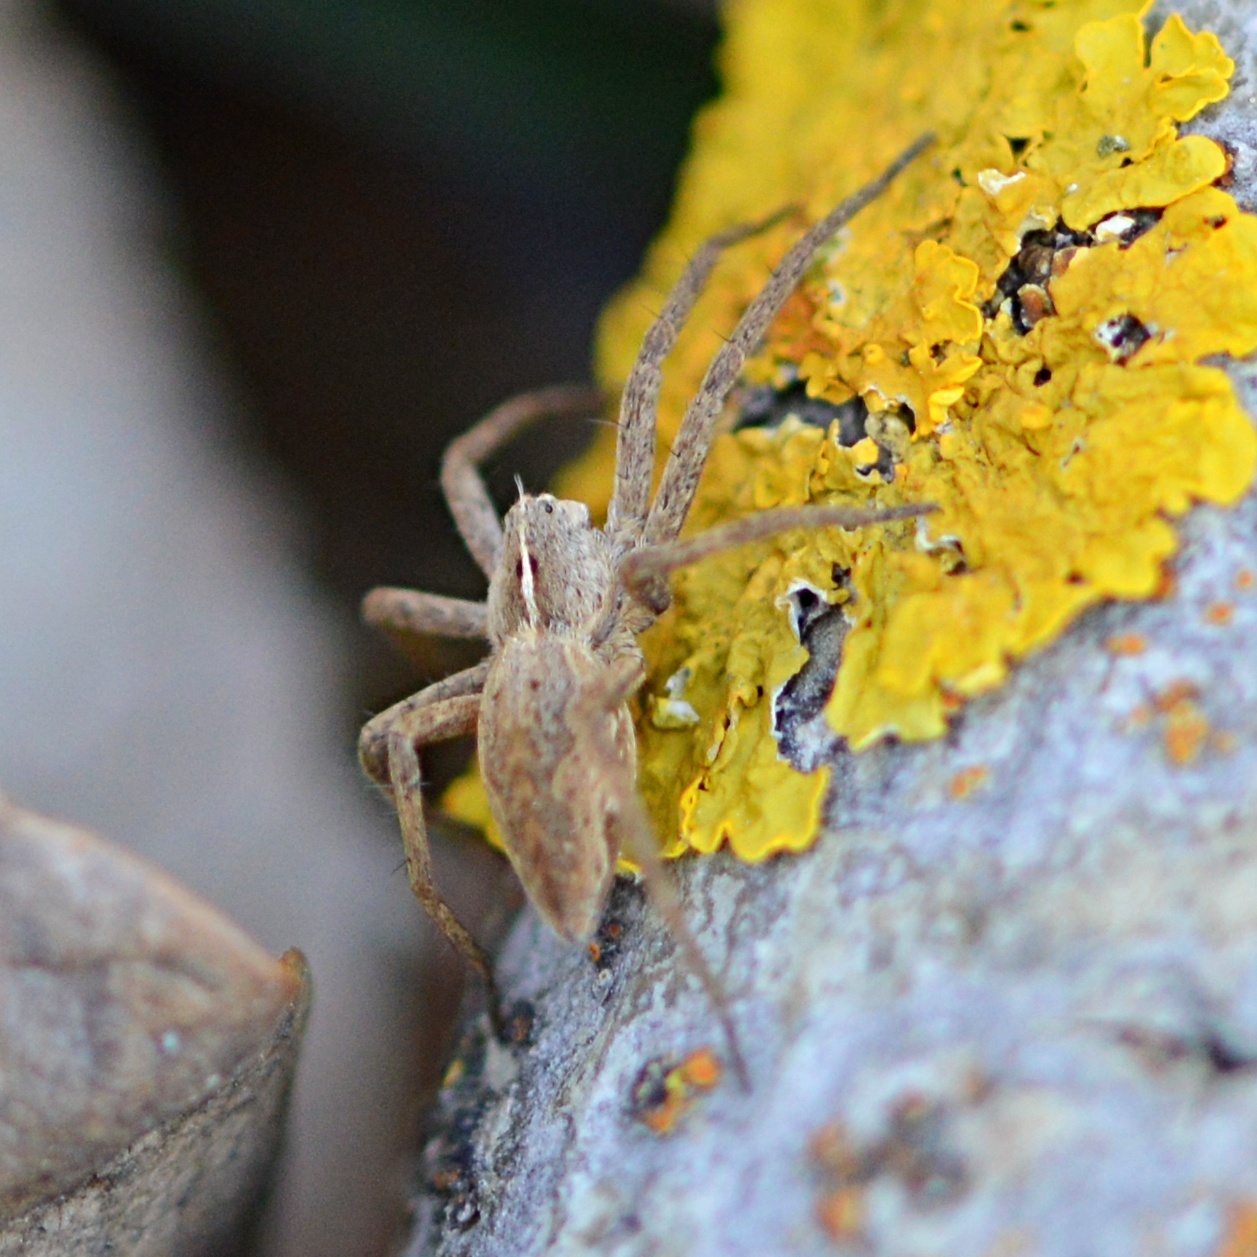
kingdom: Animalia
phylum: Arthropoda
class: Arachnida
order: Araneae
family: Pisauridae
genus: Pisaura
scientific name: Pisaura mirabilis
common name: Tent spider
